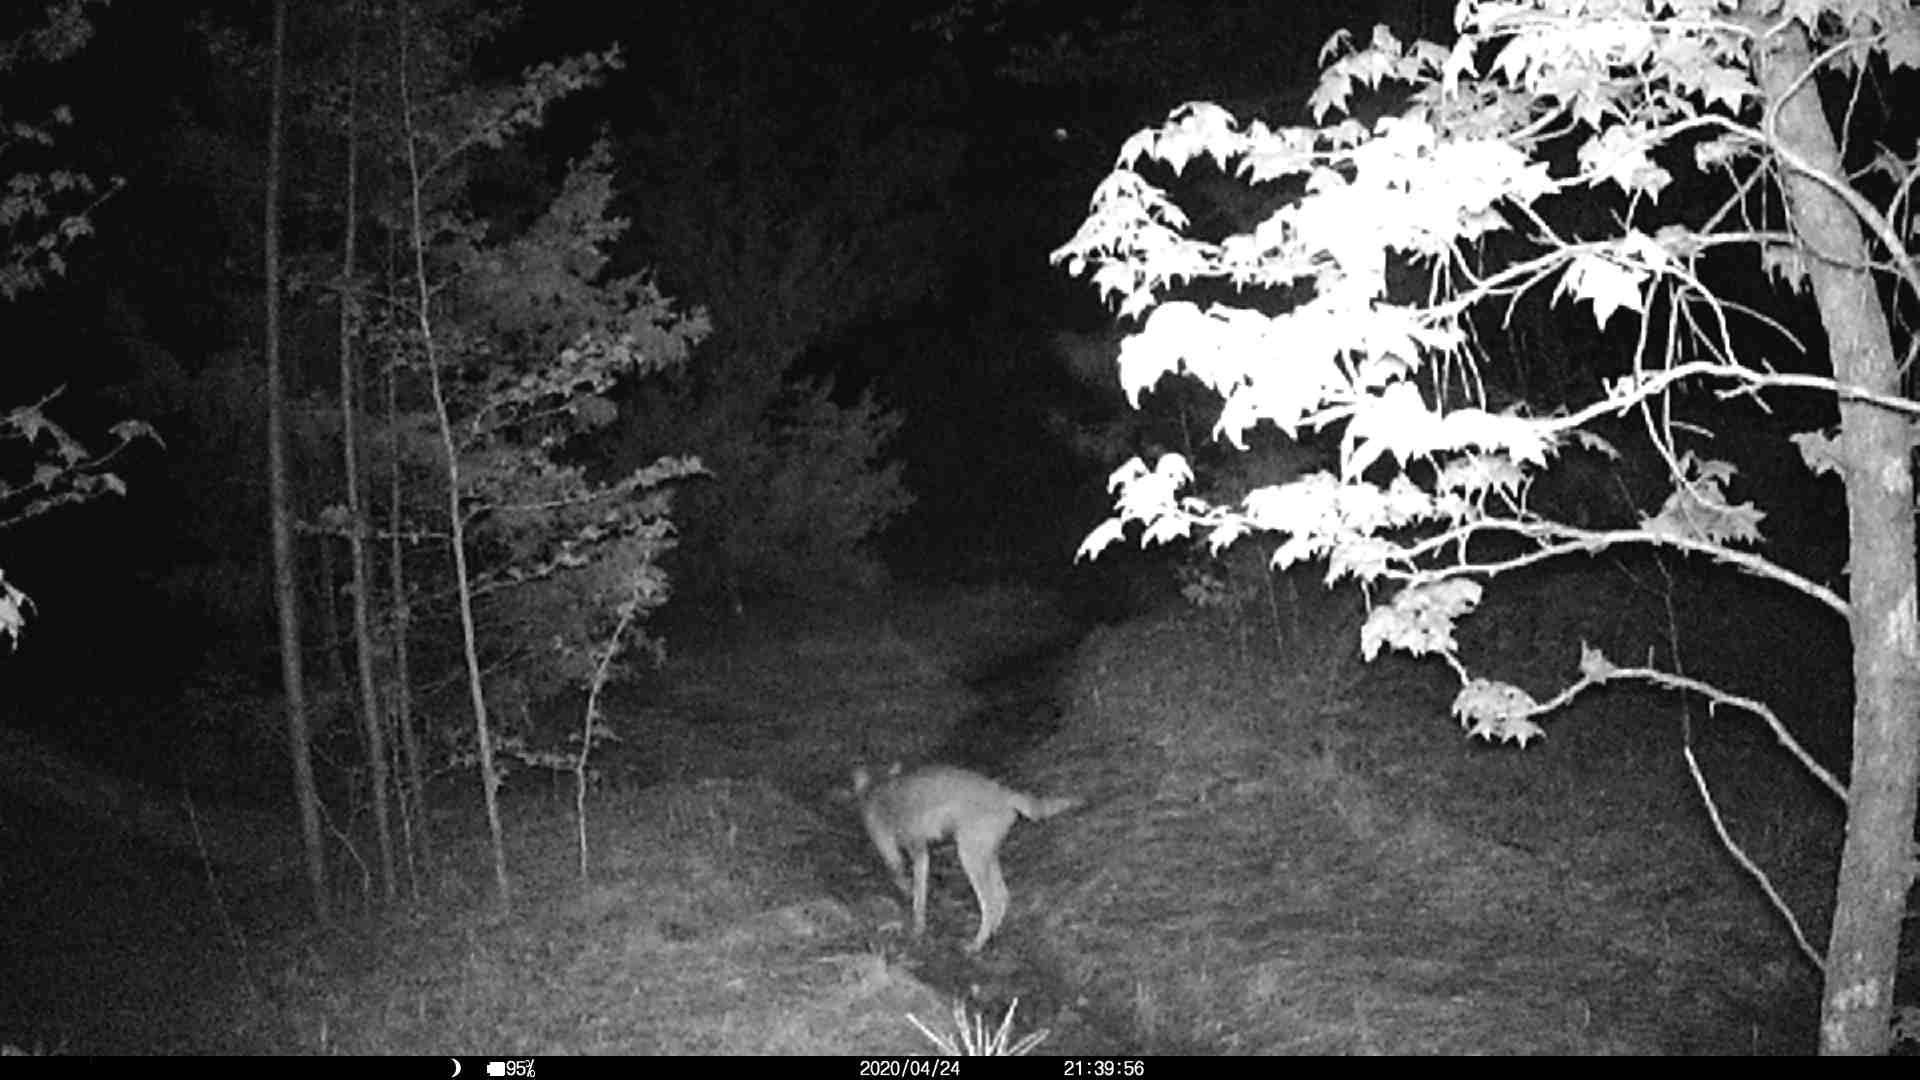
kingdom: Animalia
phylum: Chordata
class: Mammalia
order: Carnivora
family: Canidae
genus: Canis
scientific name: Canis latrans
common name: Coyote
